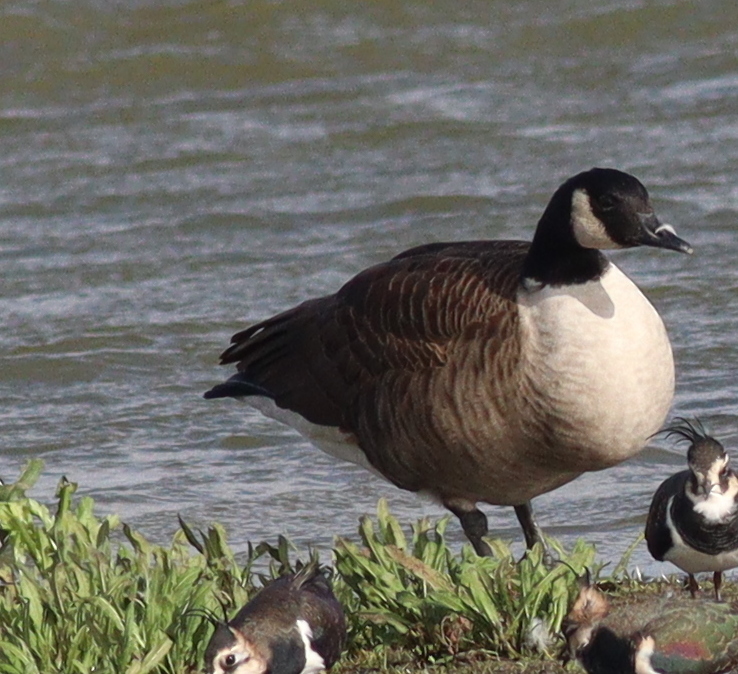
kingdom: Animalia
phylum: Chordata
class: Aves
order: Anseriformes
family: Anatidae
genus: Branta
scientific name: Branta canadensis
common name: Canada goose
